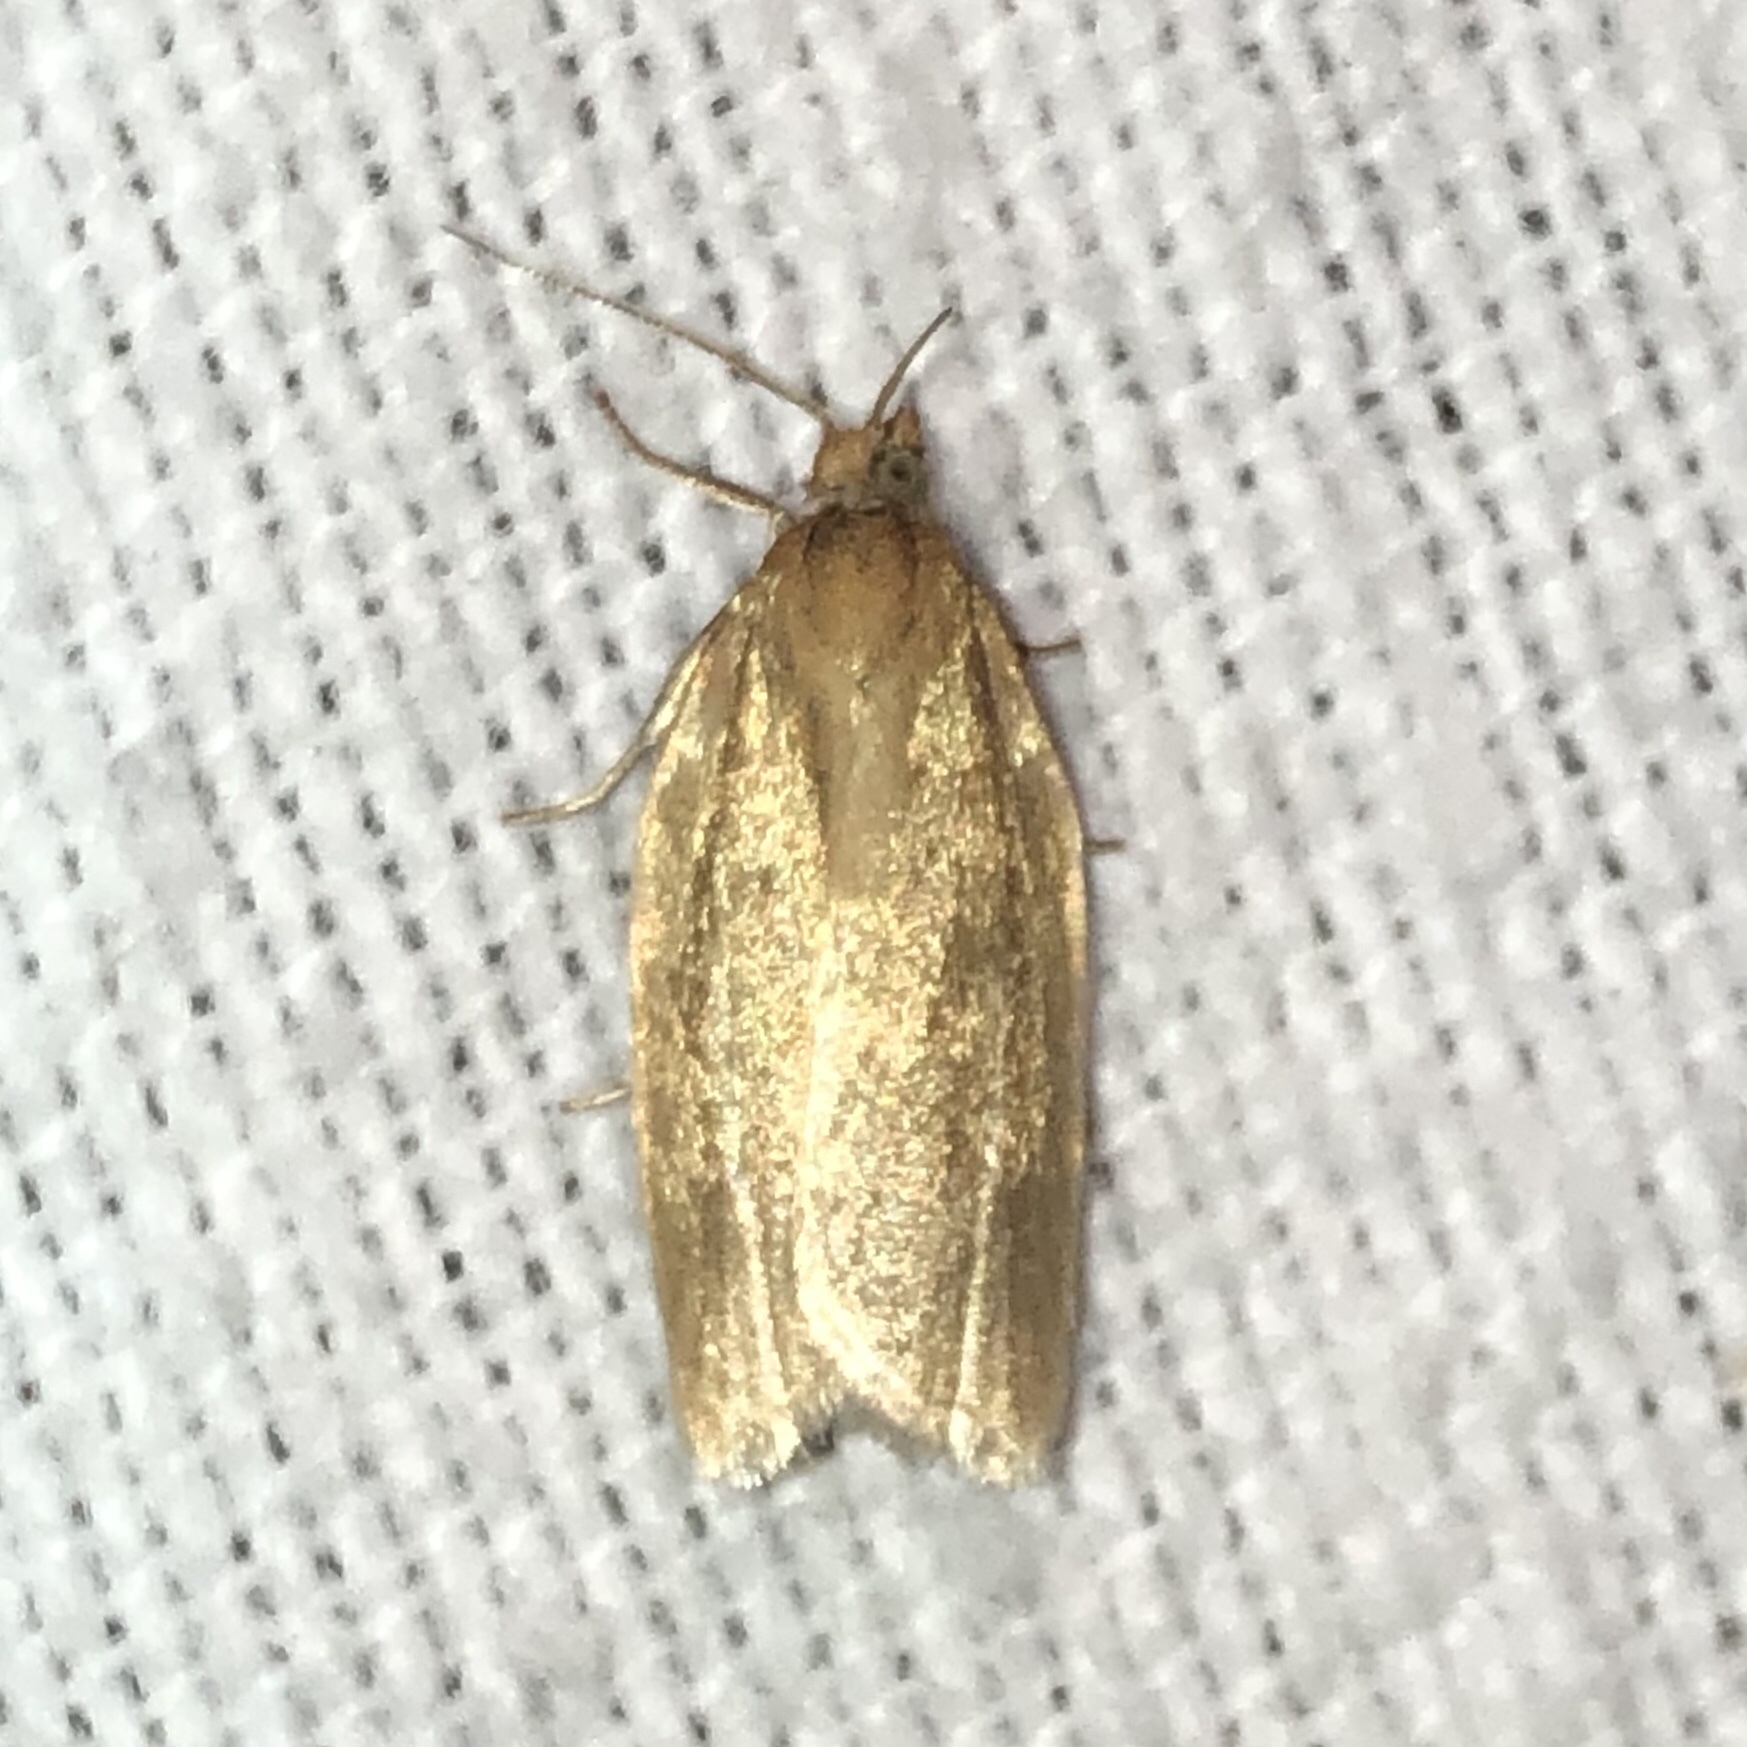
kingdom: Animalia
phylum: Arthropoda
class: Insecta
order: Lepidoptera
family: Tortricidae
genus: Clepsis
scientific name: Clepsis clemensiana
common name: Clemens' clepsis moth
